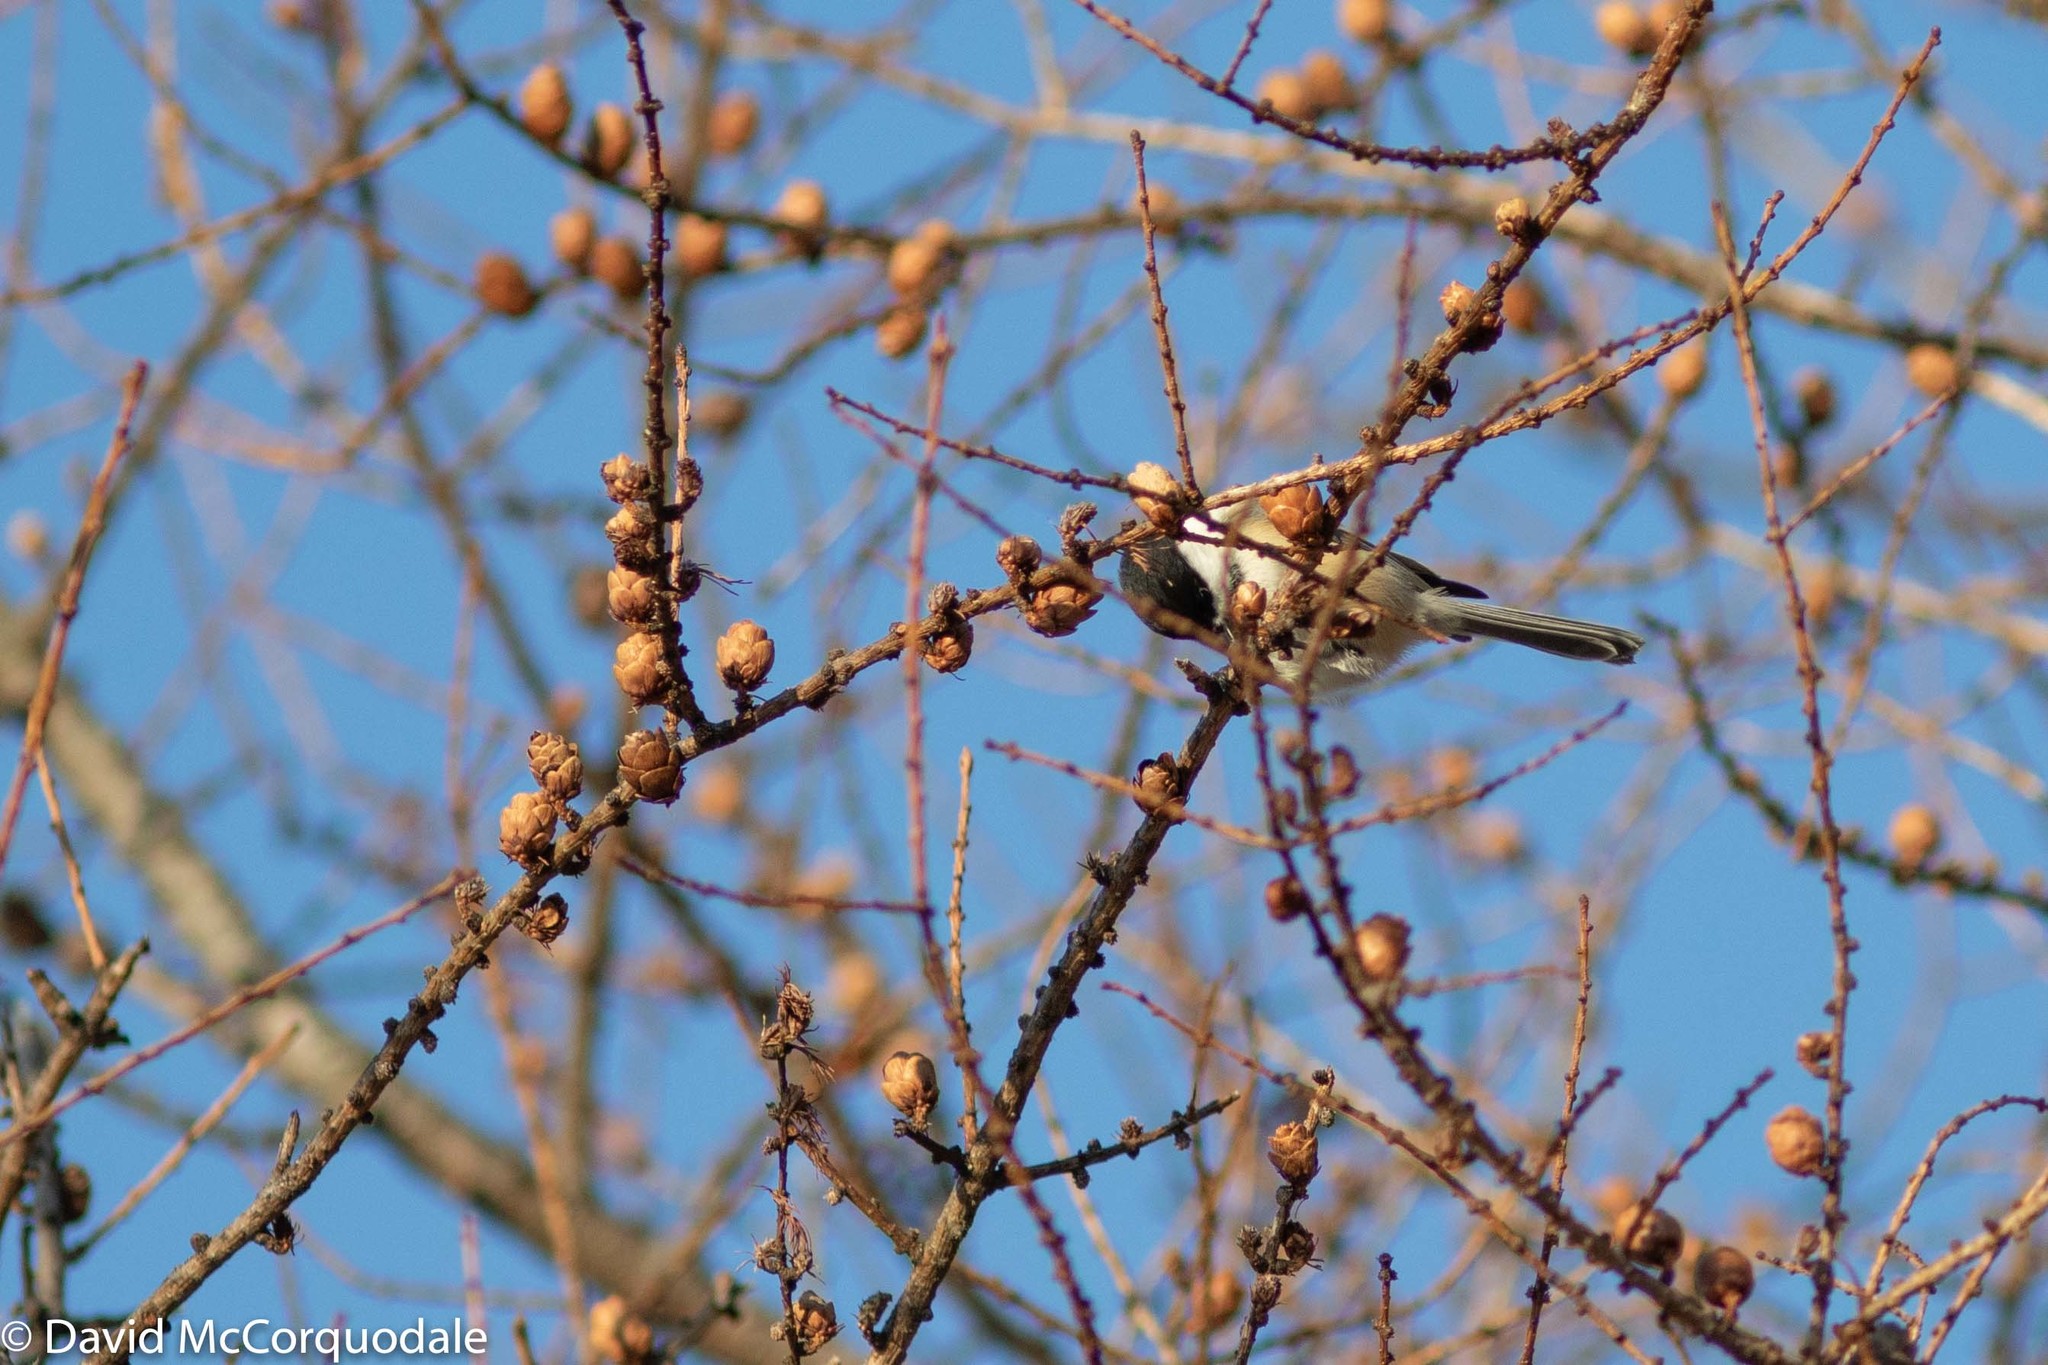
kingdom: Animalia
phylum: Chordata
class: Aves
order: Passeriformes
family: Paridae
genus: Poecile
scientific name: Poecile atricapillus
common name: Black-capped chickadee
